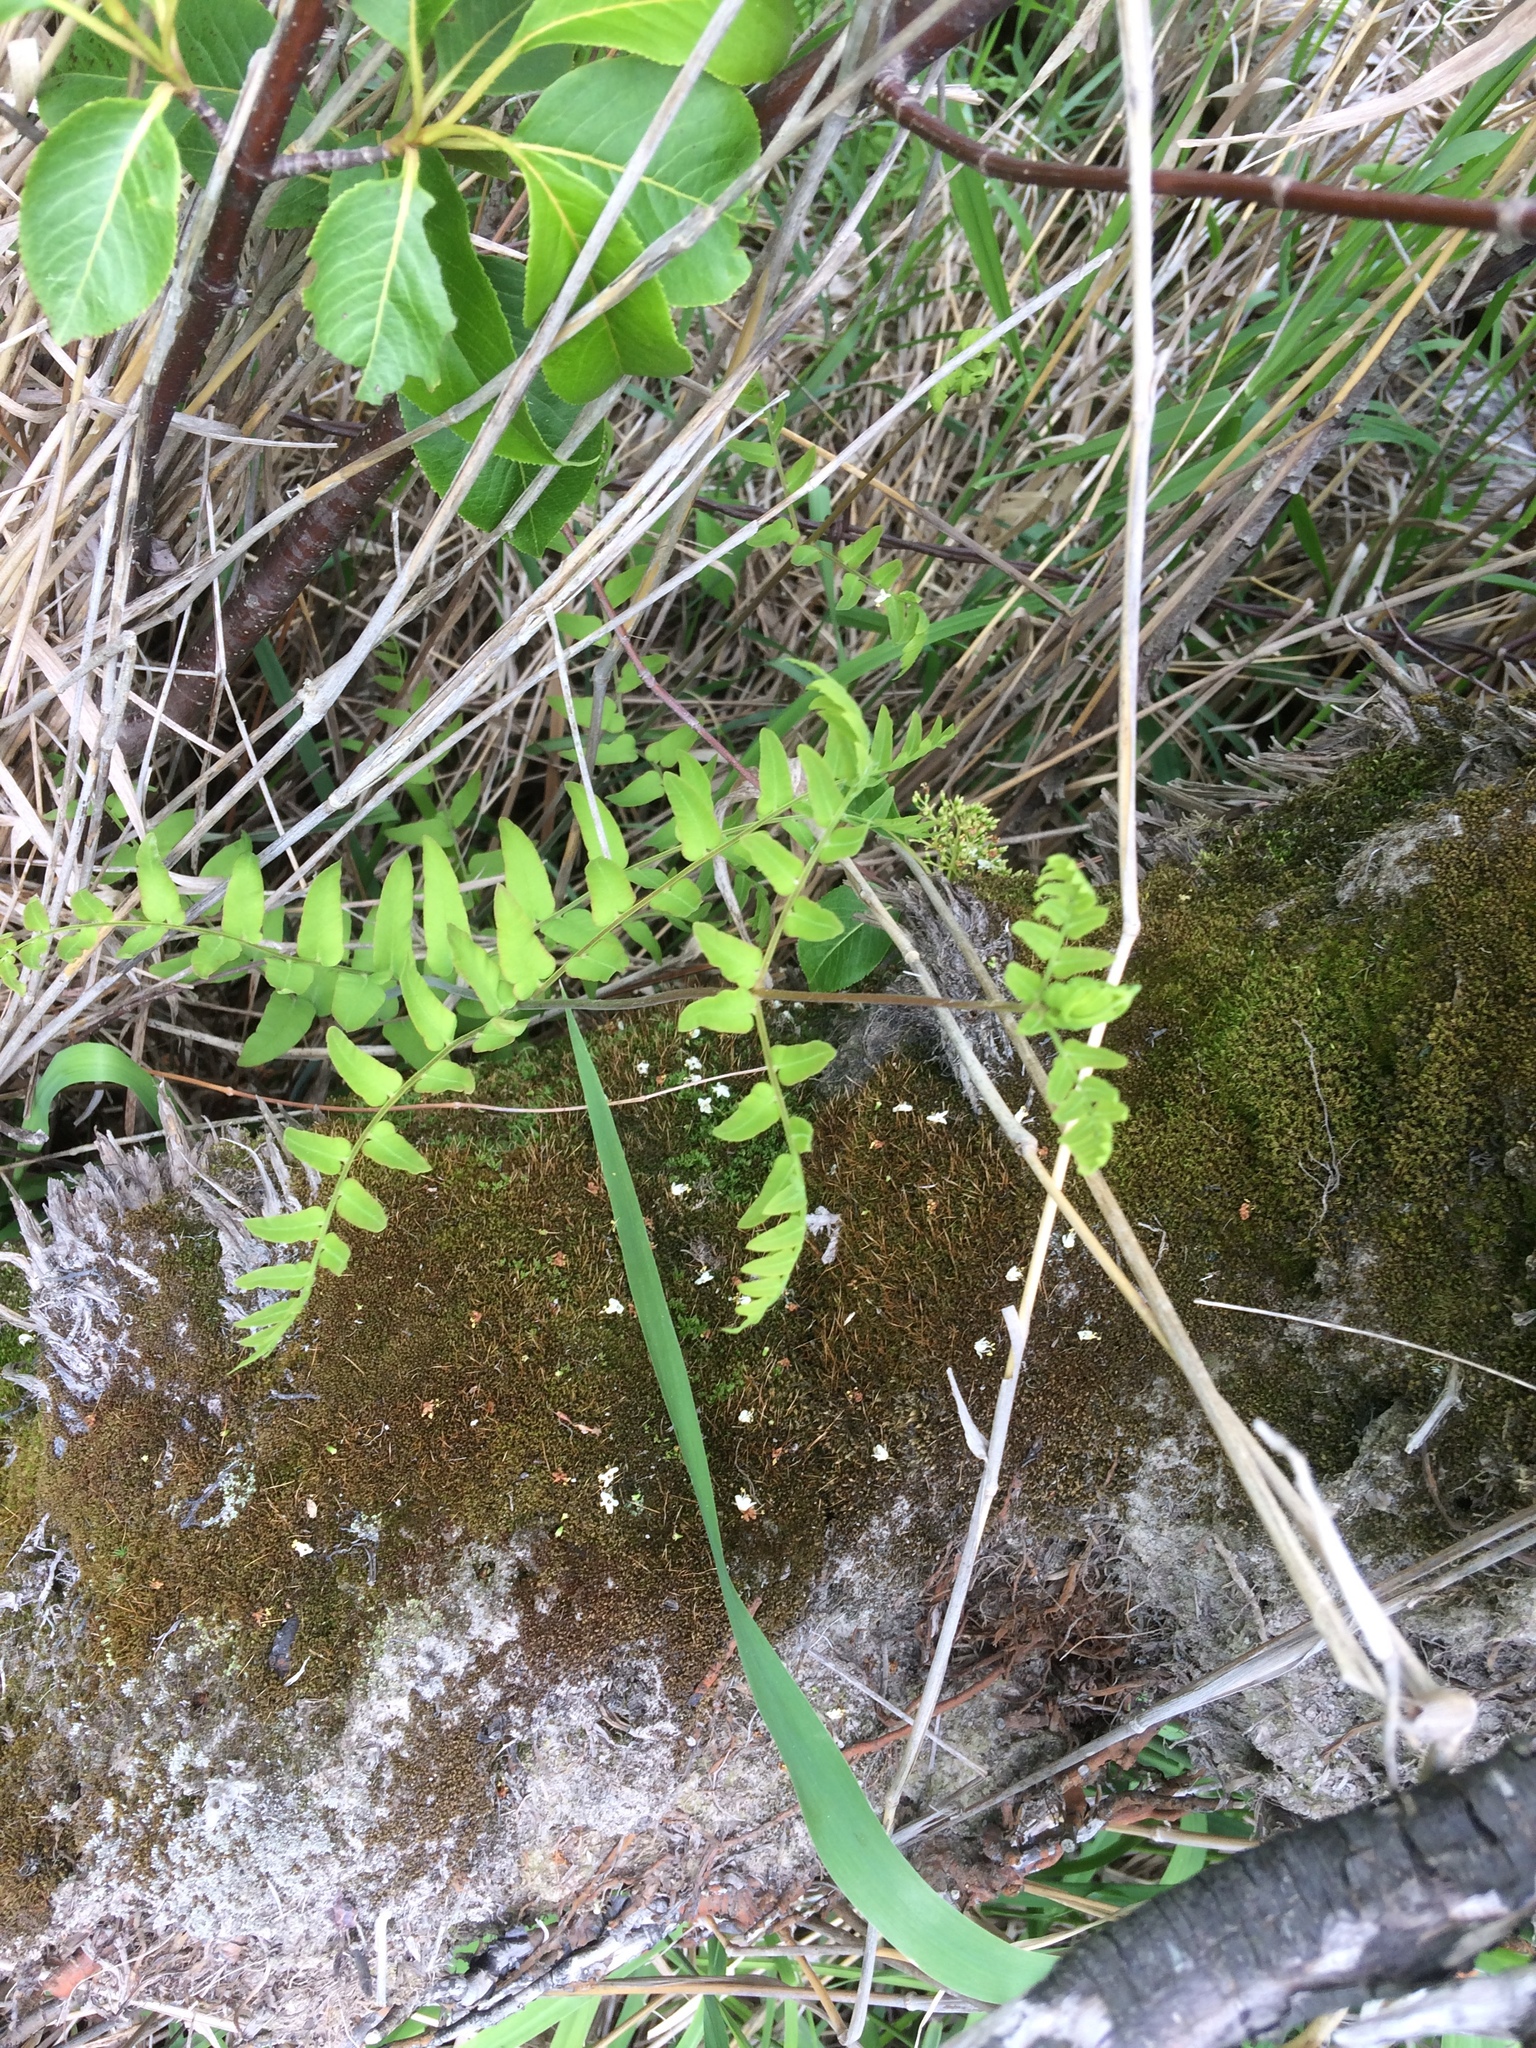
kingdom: Plantae
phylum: Tracheophyta
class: Polypodiopsida
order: Osmundales
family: Osmundaceae
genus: Osmunda
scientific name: Osmunda spectabilis
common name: American royal fern
